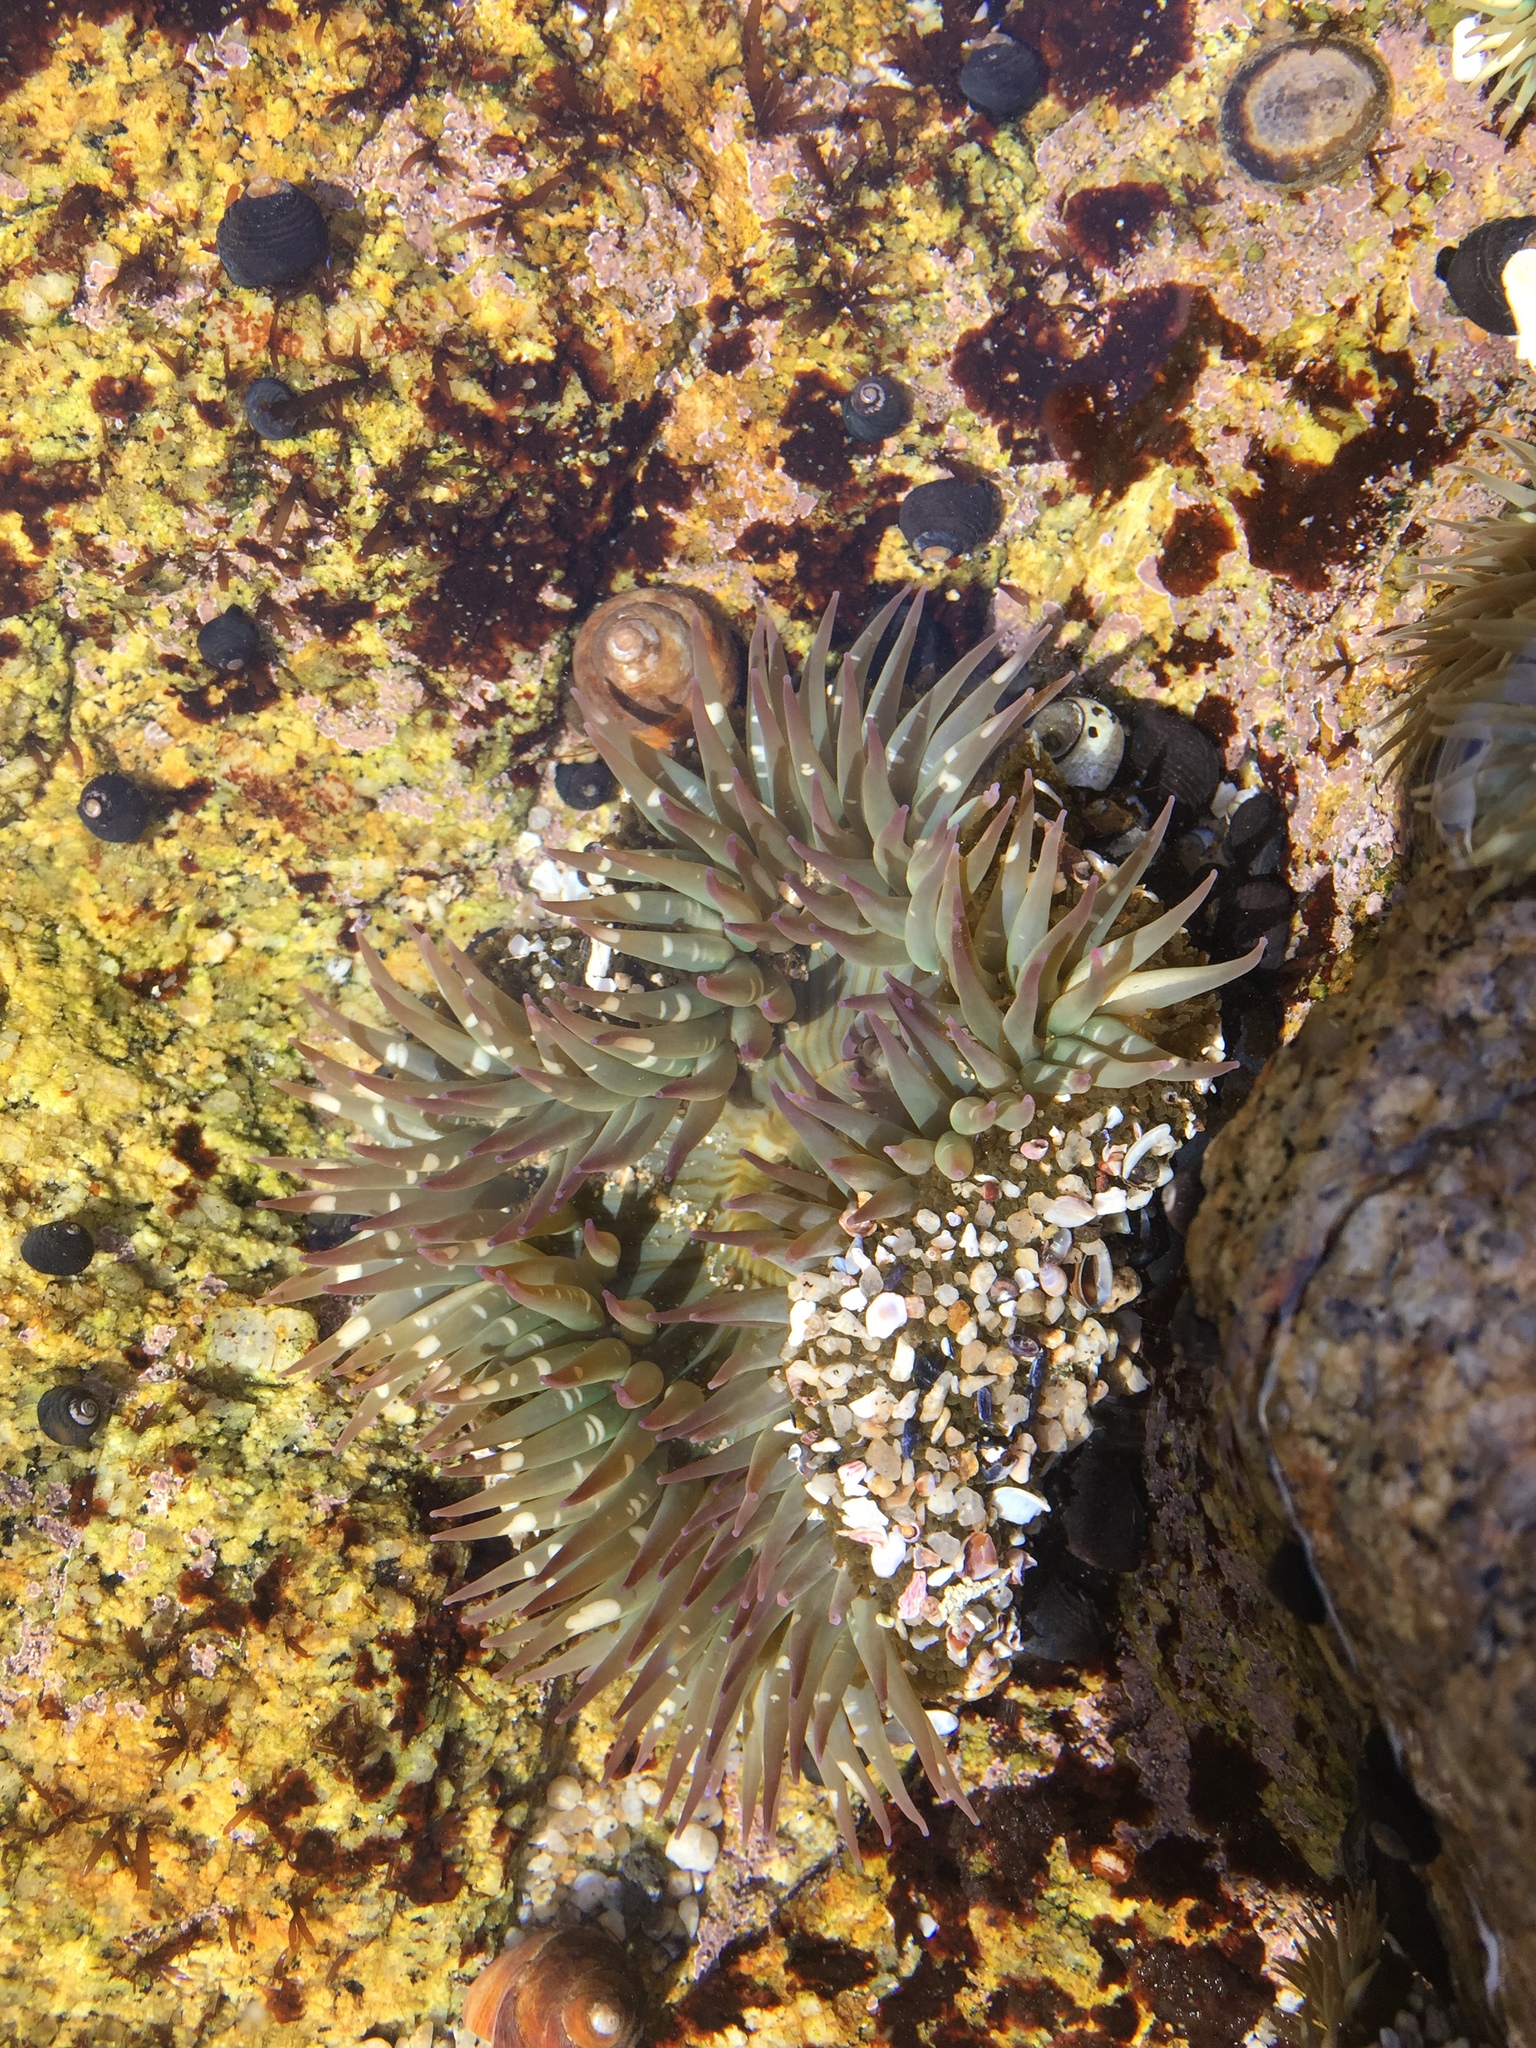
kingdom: Animalia
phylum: Cnidaria
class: Anthozoa
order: Actiniaria
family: Actiniidae
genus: Anthopleura
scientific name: Anthopleura sola
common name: Sun anemone
